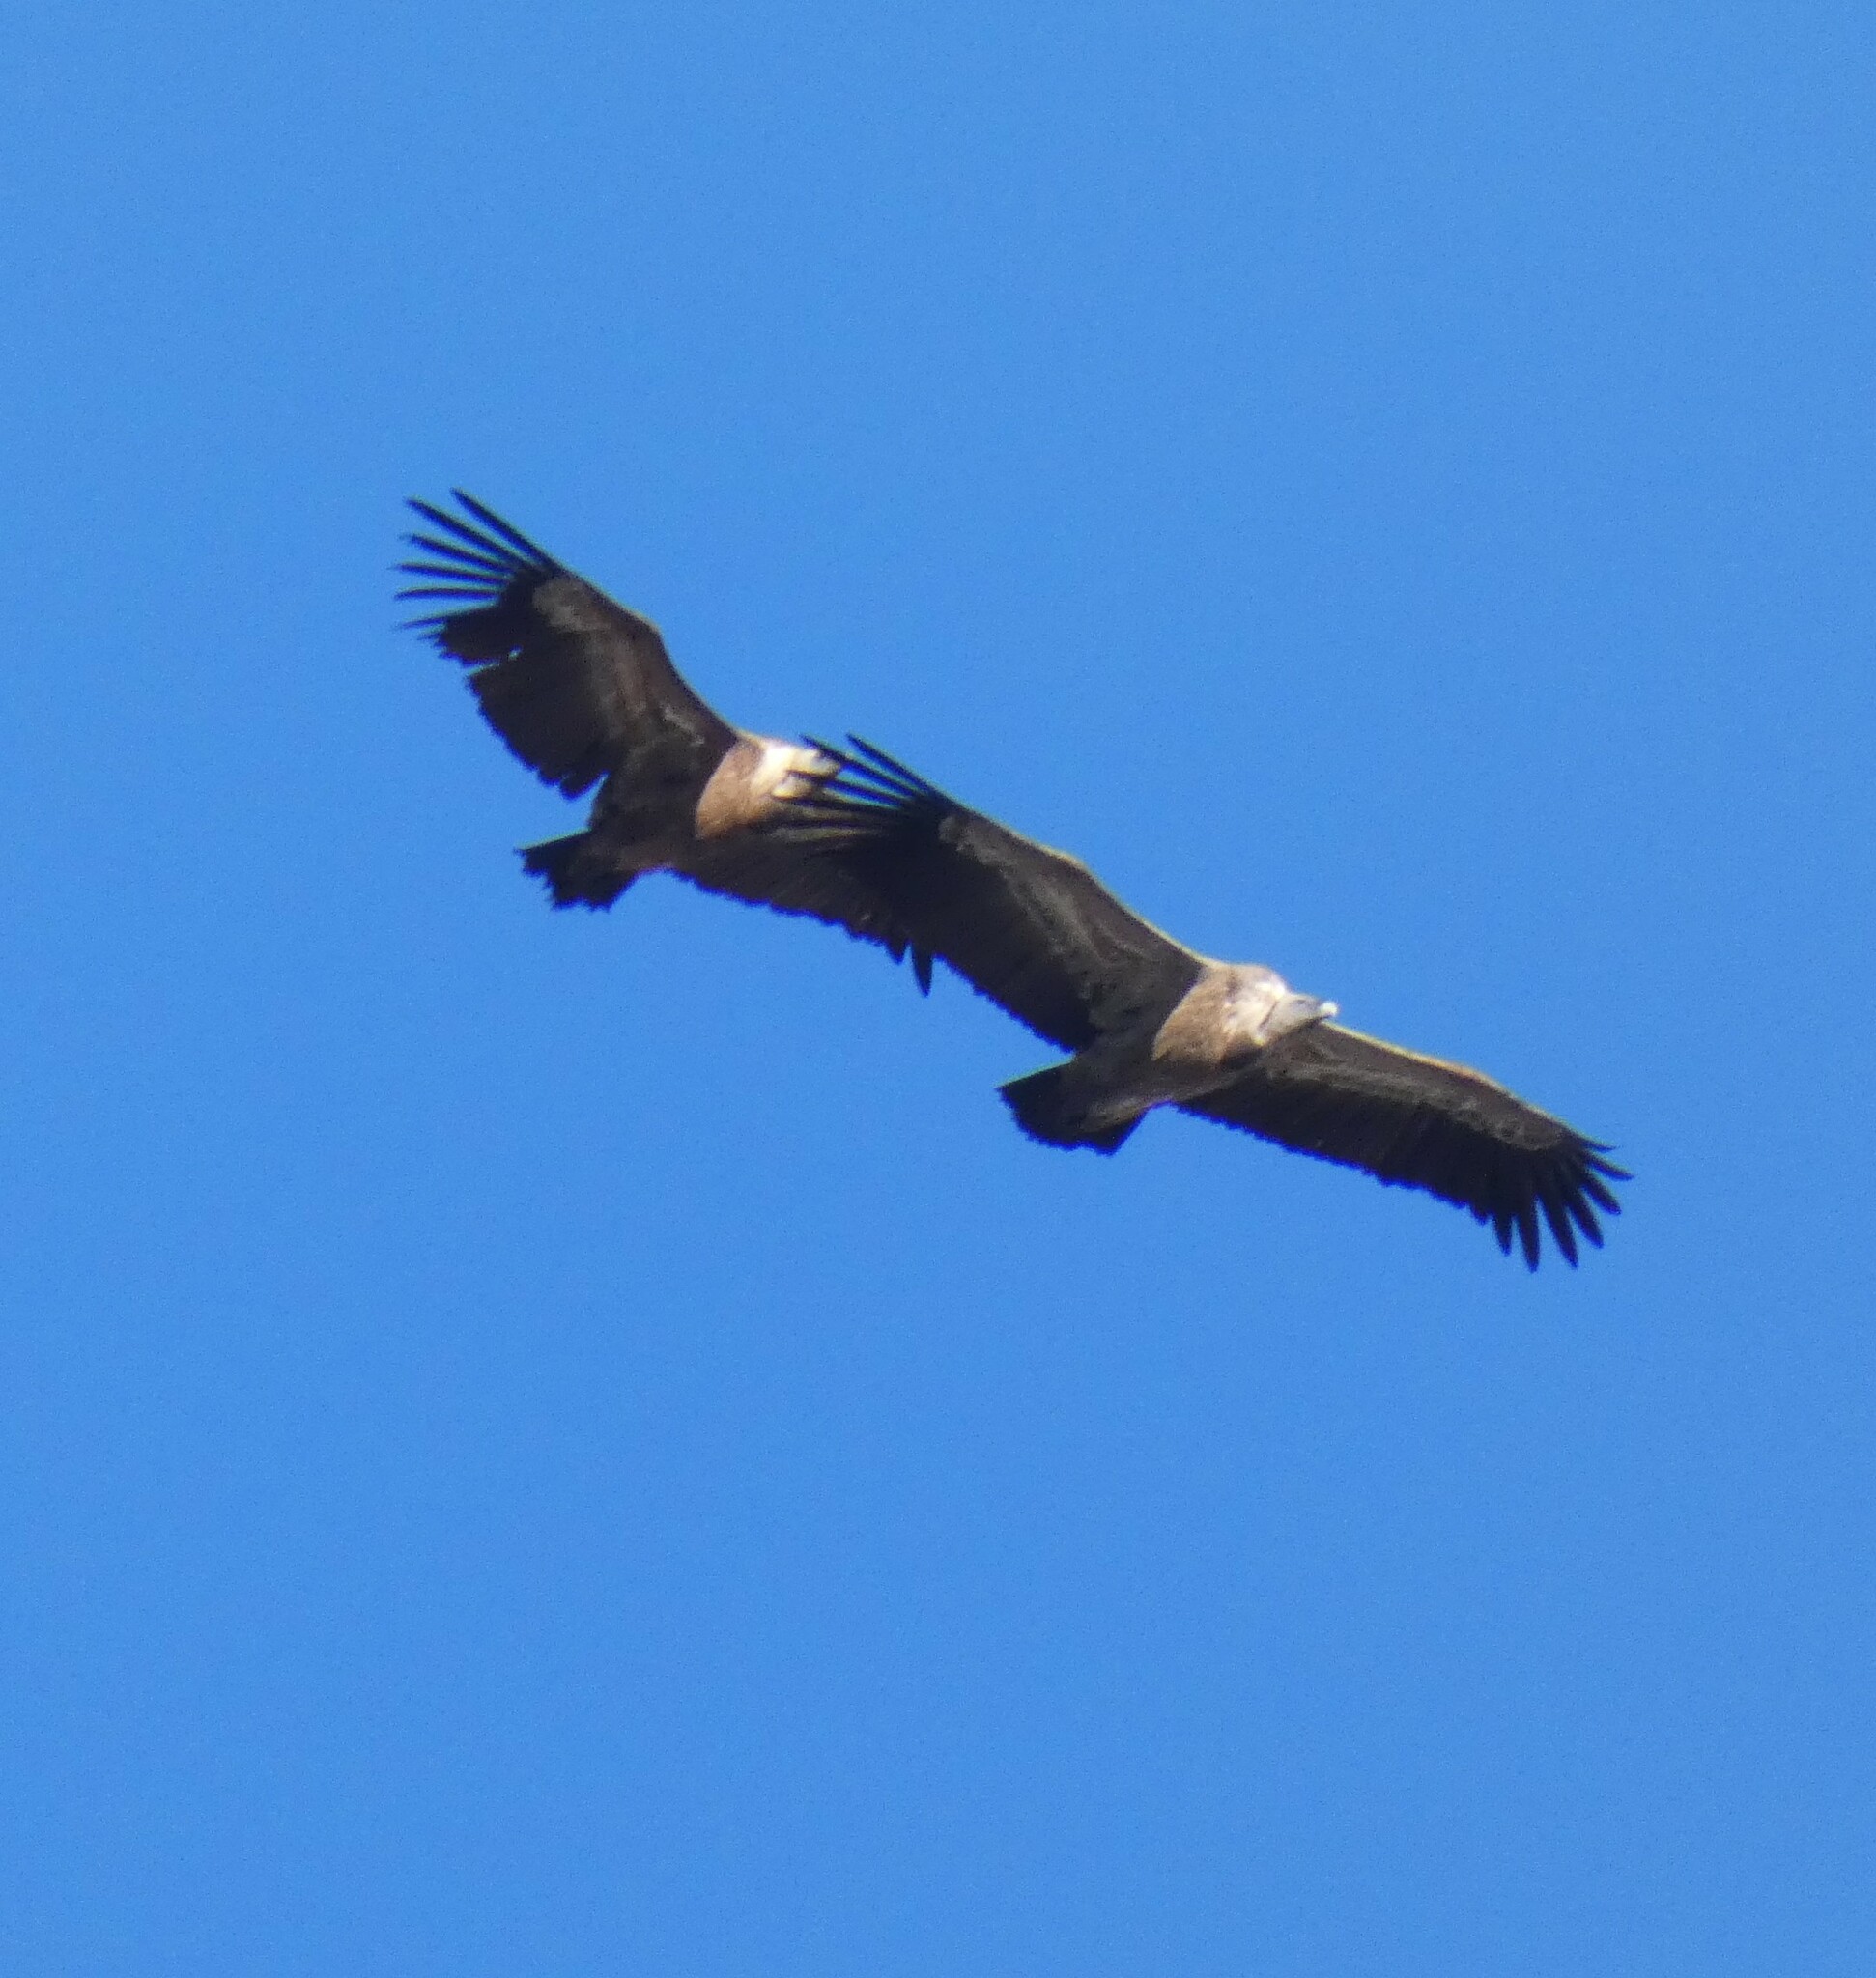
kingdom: Animalia
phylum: Chordata
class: Aves
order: Accipitriformes
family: Accipitridae
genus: Gyps
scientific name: Gyps fulvus
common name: Griffon vulture
